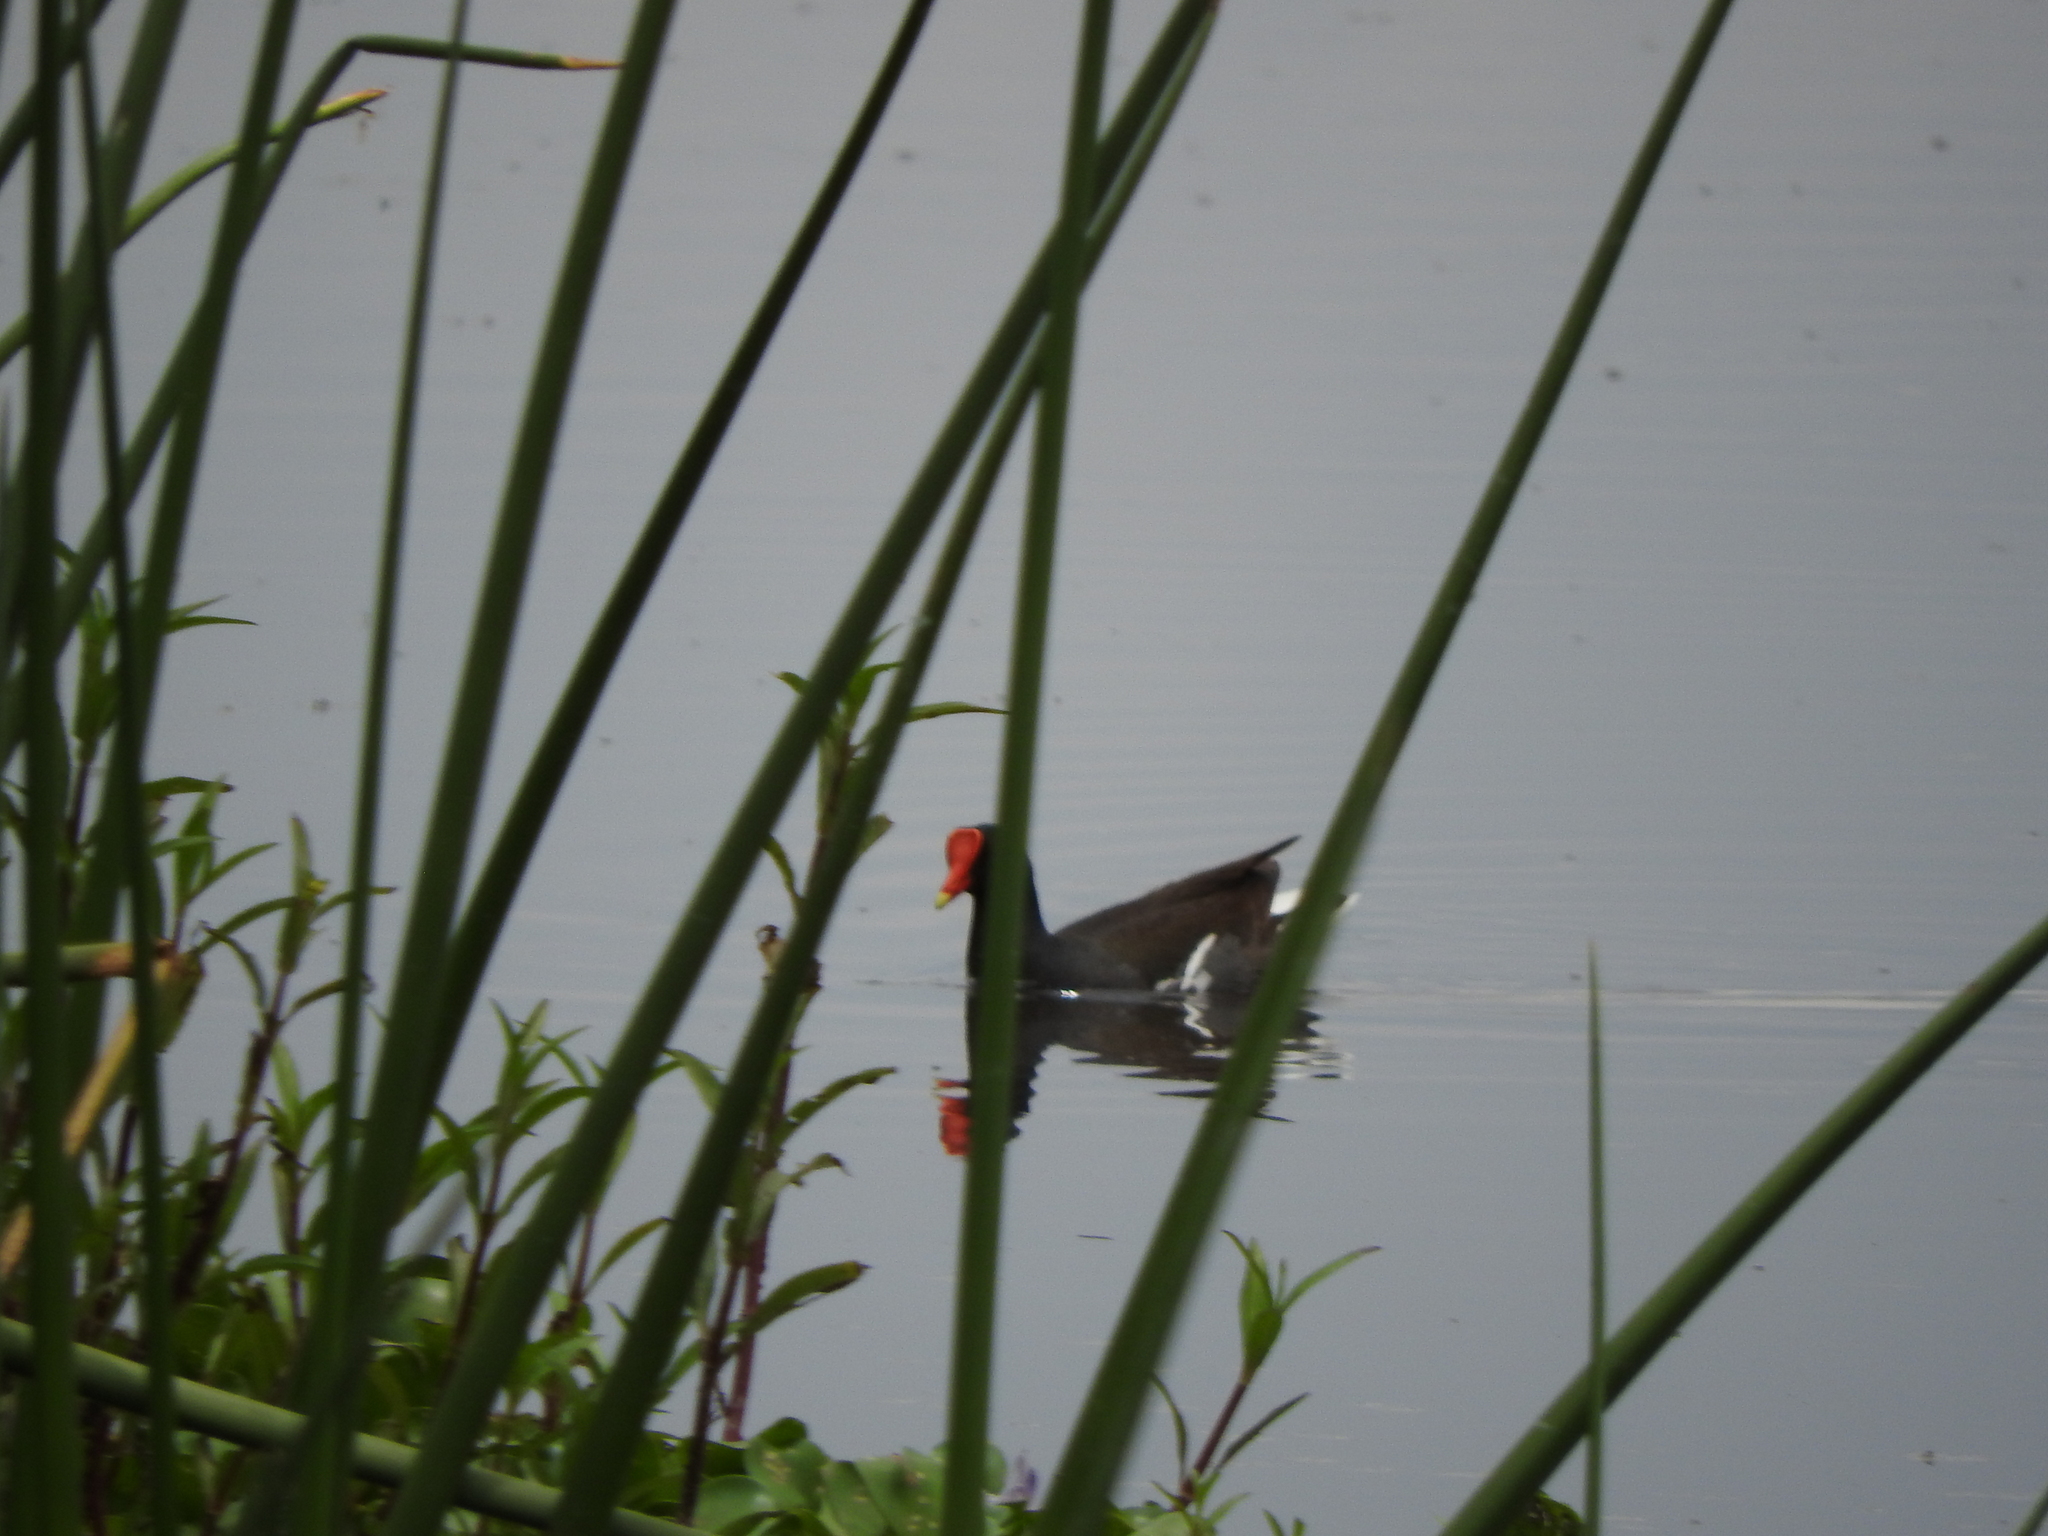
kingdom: Animalia
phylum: Chordata
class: Aves
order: Gruiformes
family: Rallidae
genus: Gallinula
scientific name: Gallinula chloropus
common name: Common moorhen
